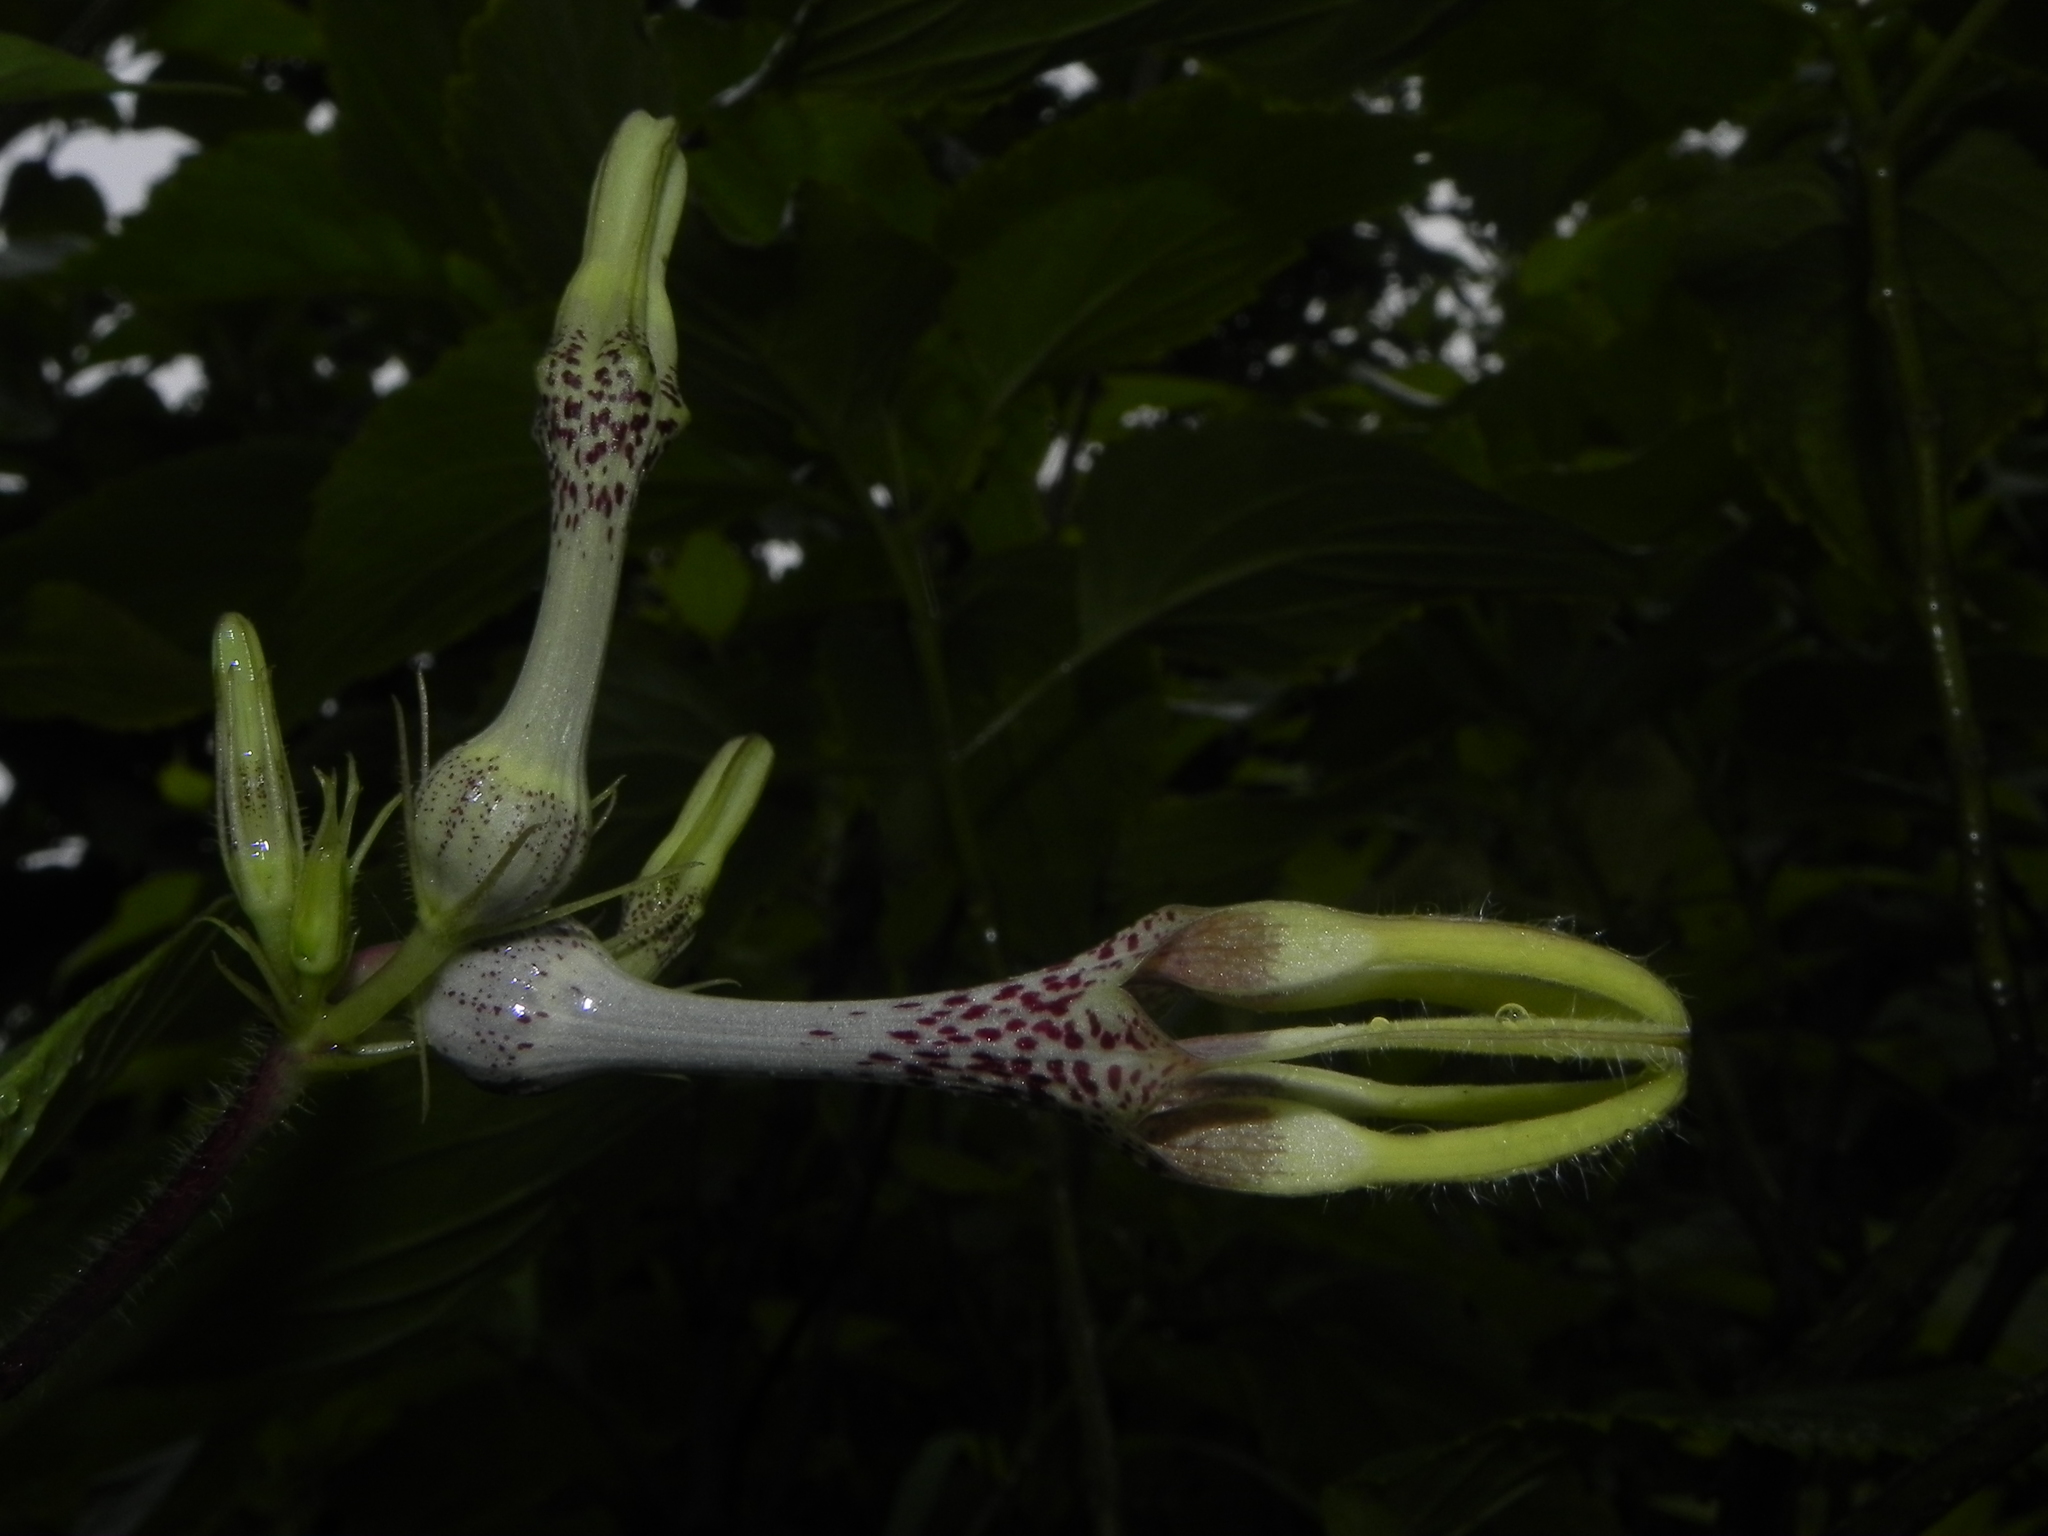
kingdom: Plantae
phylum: Tracheophyta
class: Magnoliopsida
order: Gentianales
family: Apocynaceae
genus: Ceropegia
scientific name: Ceropegia vincifolia
